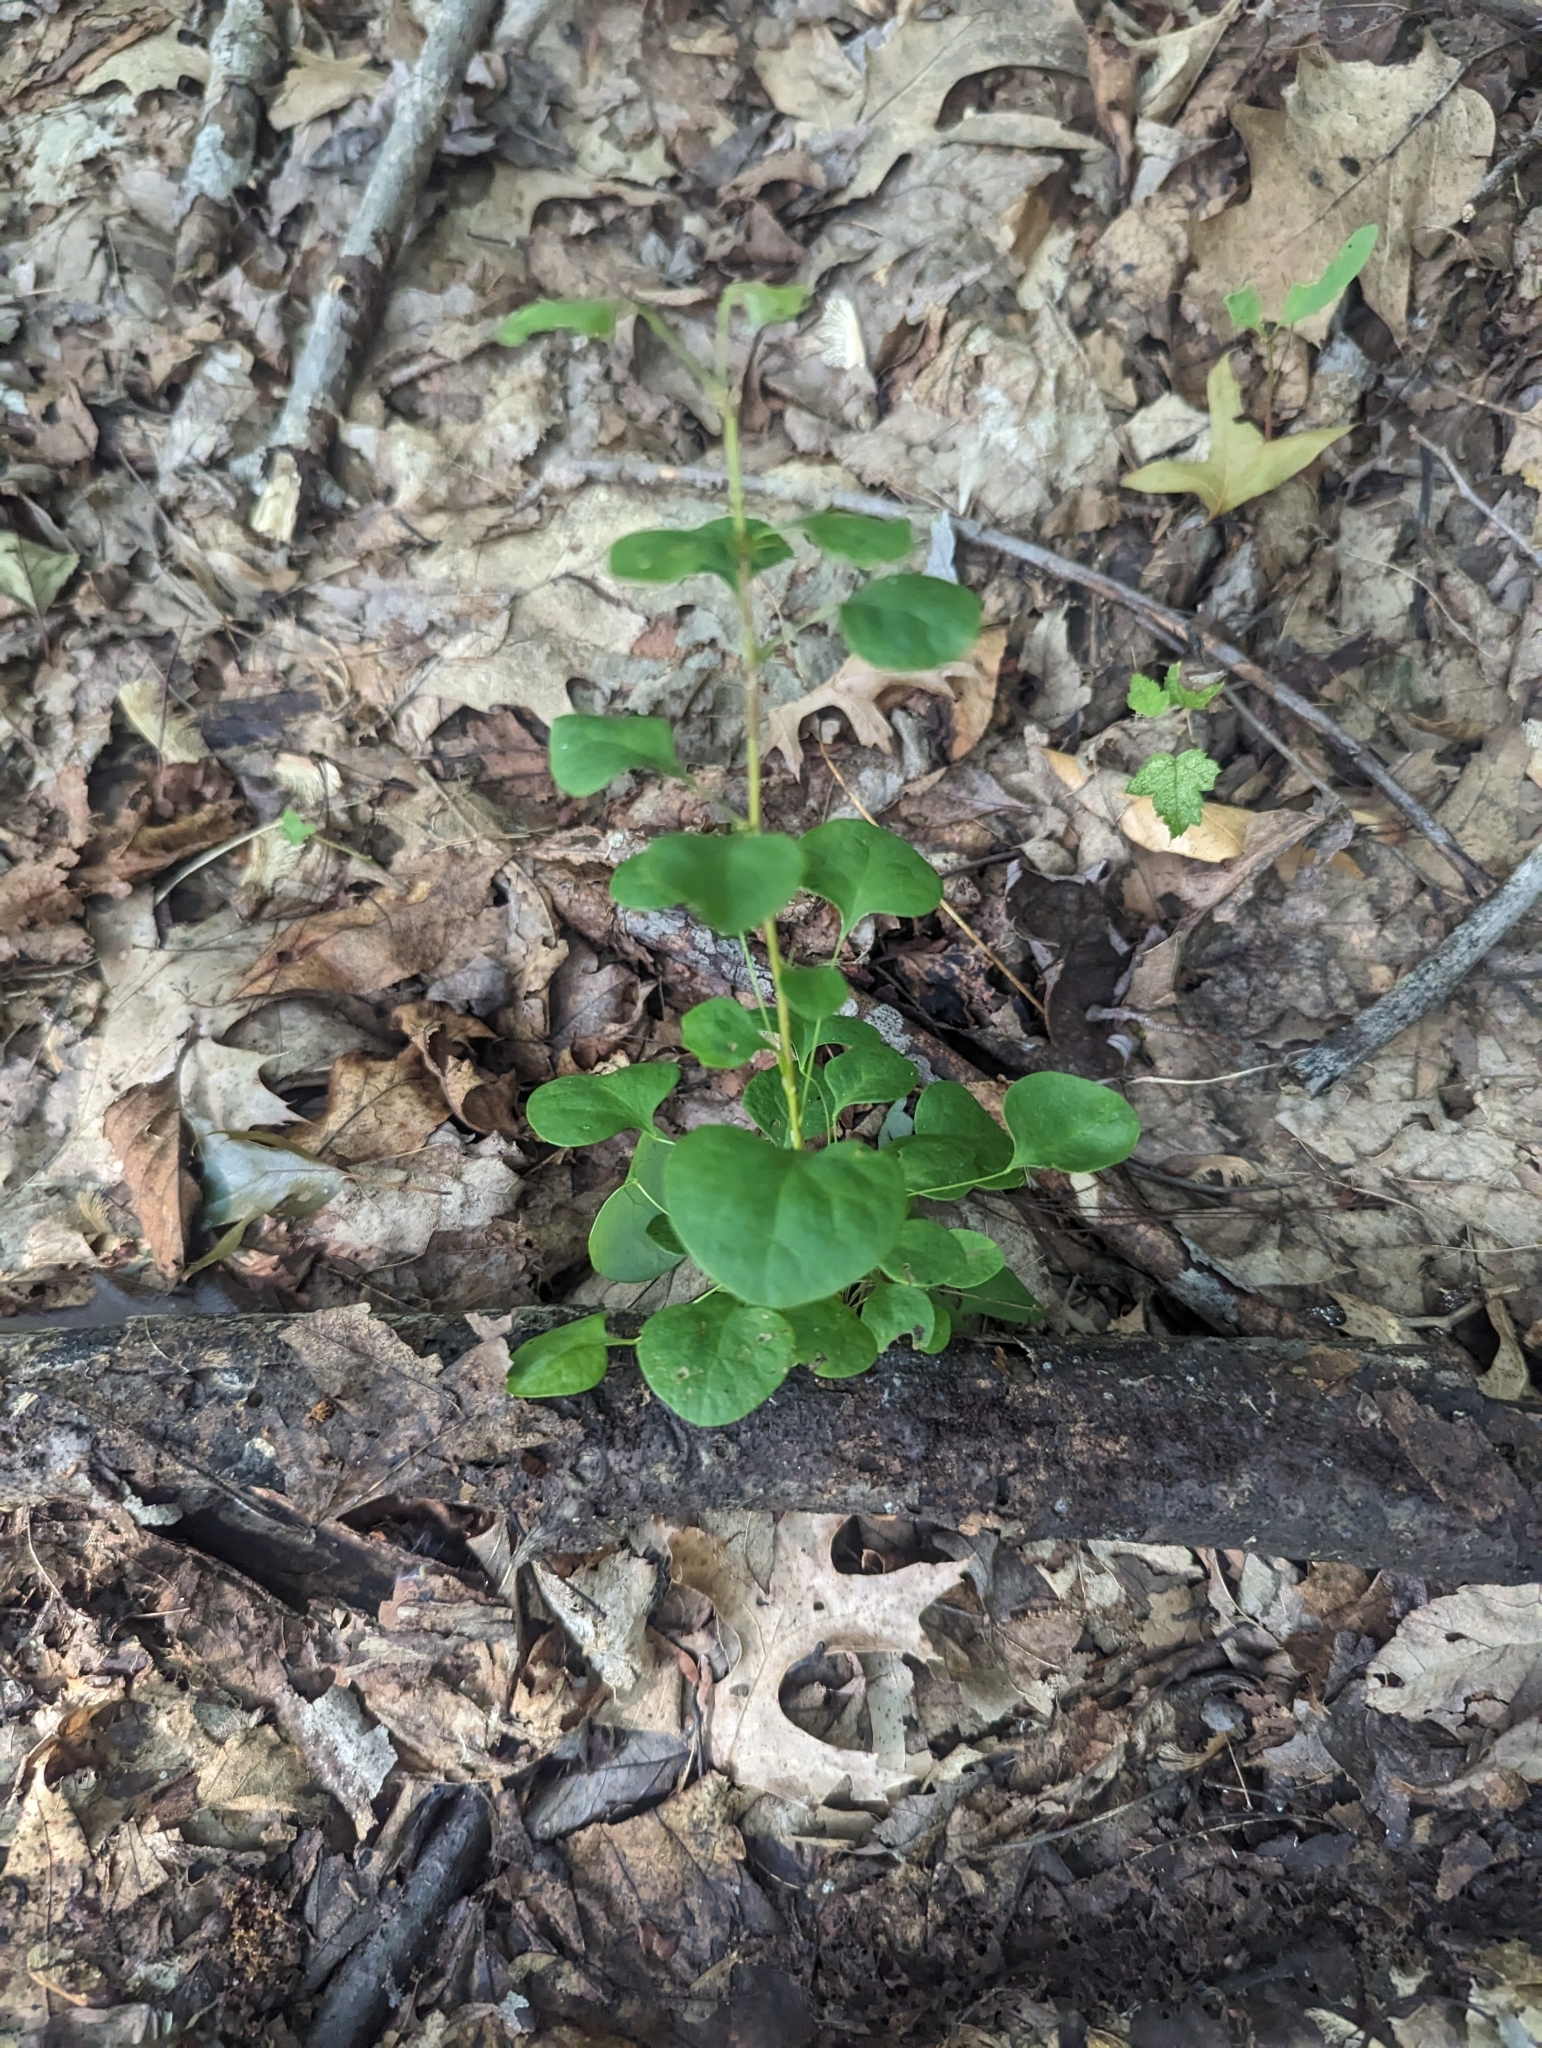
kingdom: Plantae
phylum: Tracheophyta
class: Magnoliopsida
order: Ranunculales
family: Berberidaceae
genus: Berberis
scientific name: Berberis thunbergii
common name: Japanese barberry
